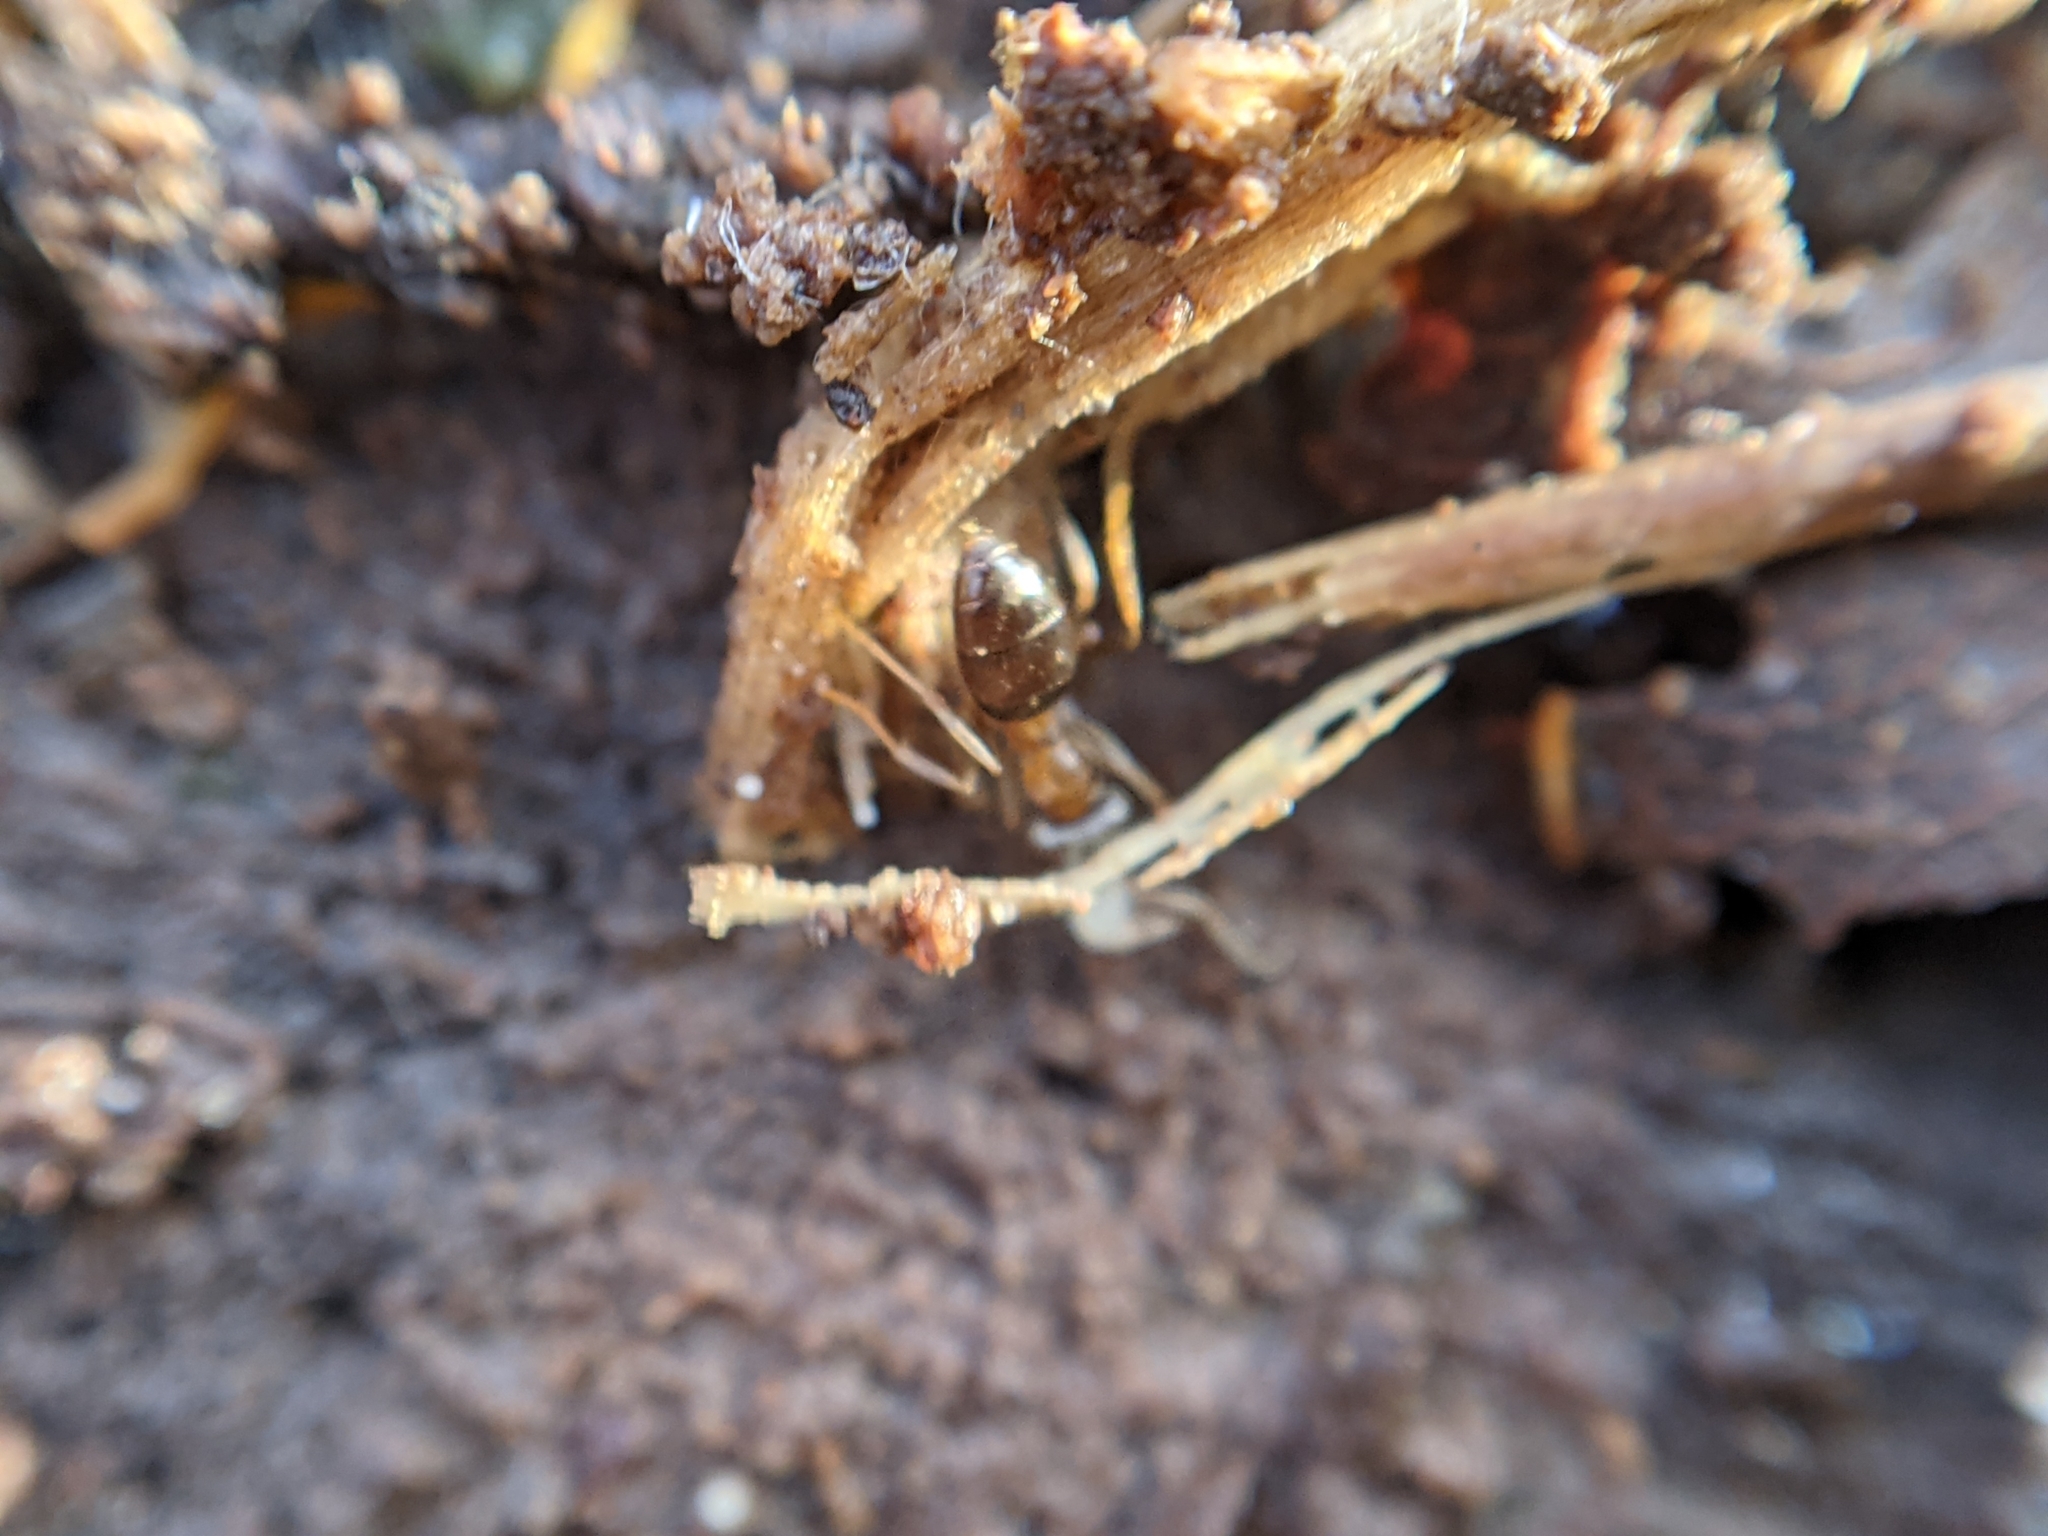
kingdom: Animalia
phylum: Arthropoda
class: Insecta
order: Hymenoptera
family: Formicidae
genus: Lasius
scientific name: Lasius brunneus
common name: Brown ant
